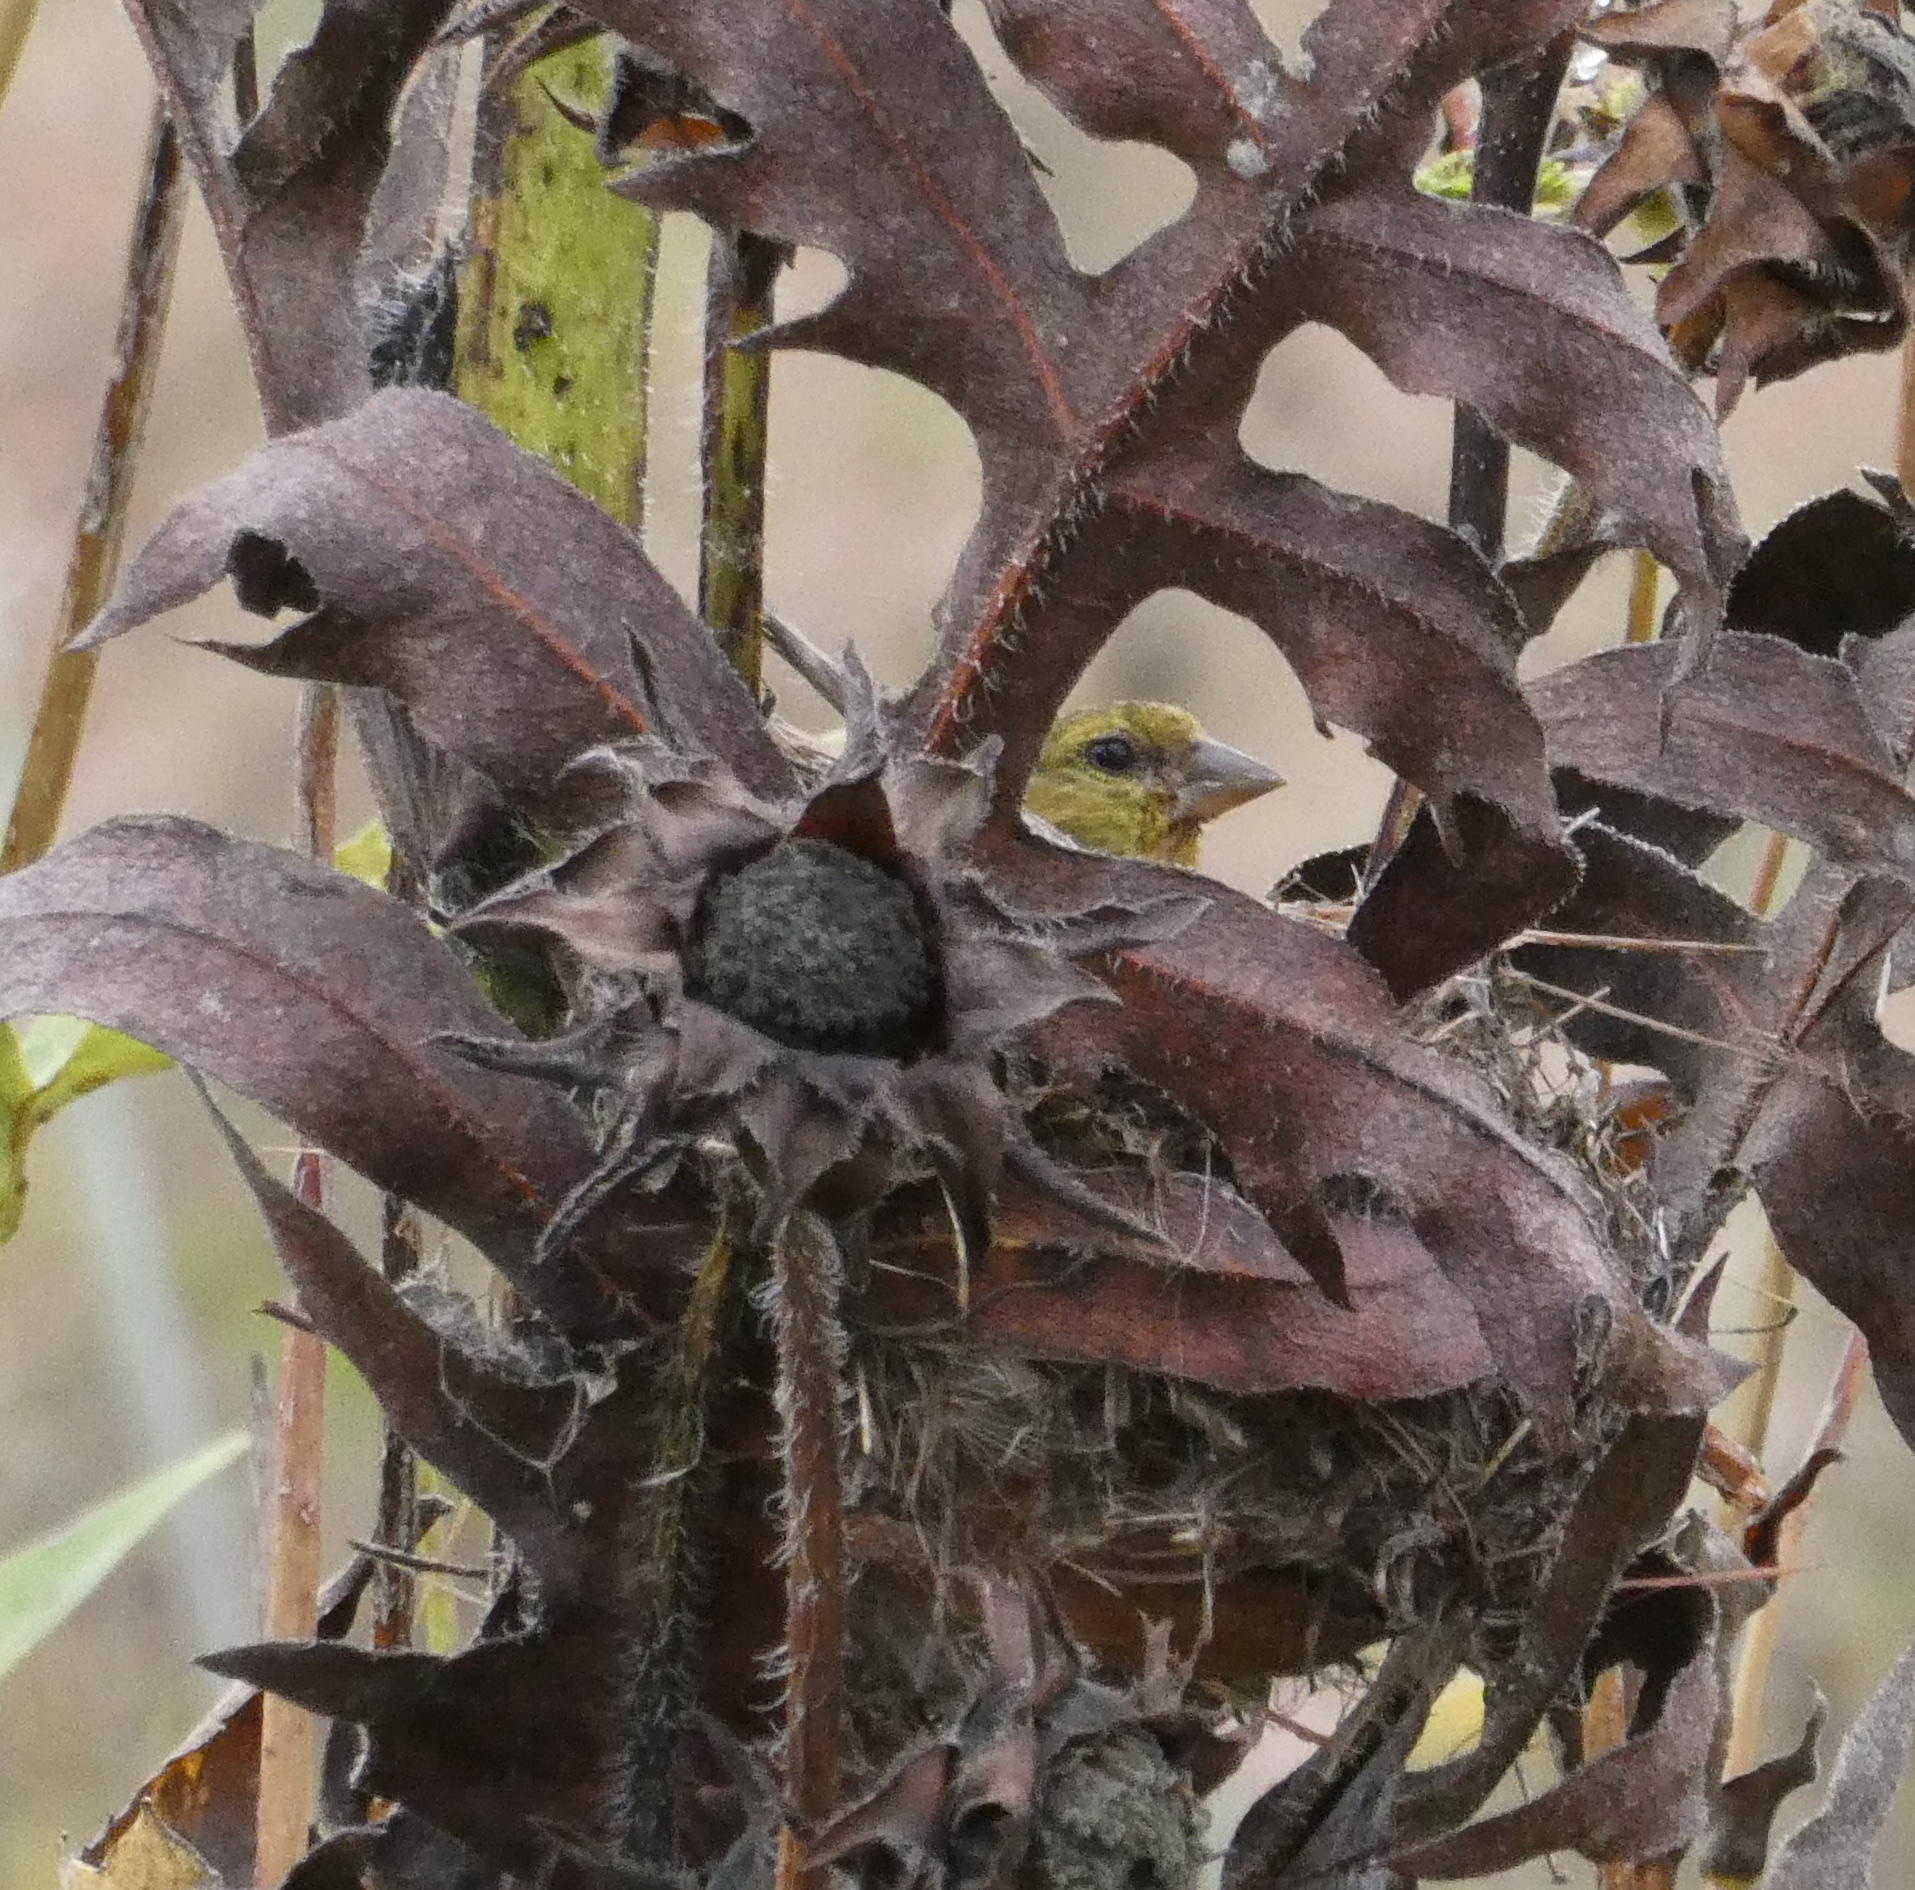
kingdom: Animalia
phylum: Chordata
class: Aves
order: Passeriformes
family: Fringillidae
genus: Spinus
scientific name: Spinus tristis
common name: American goldfinch
